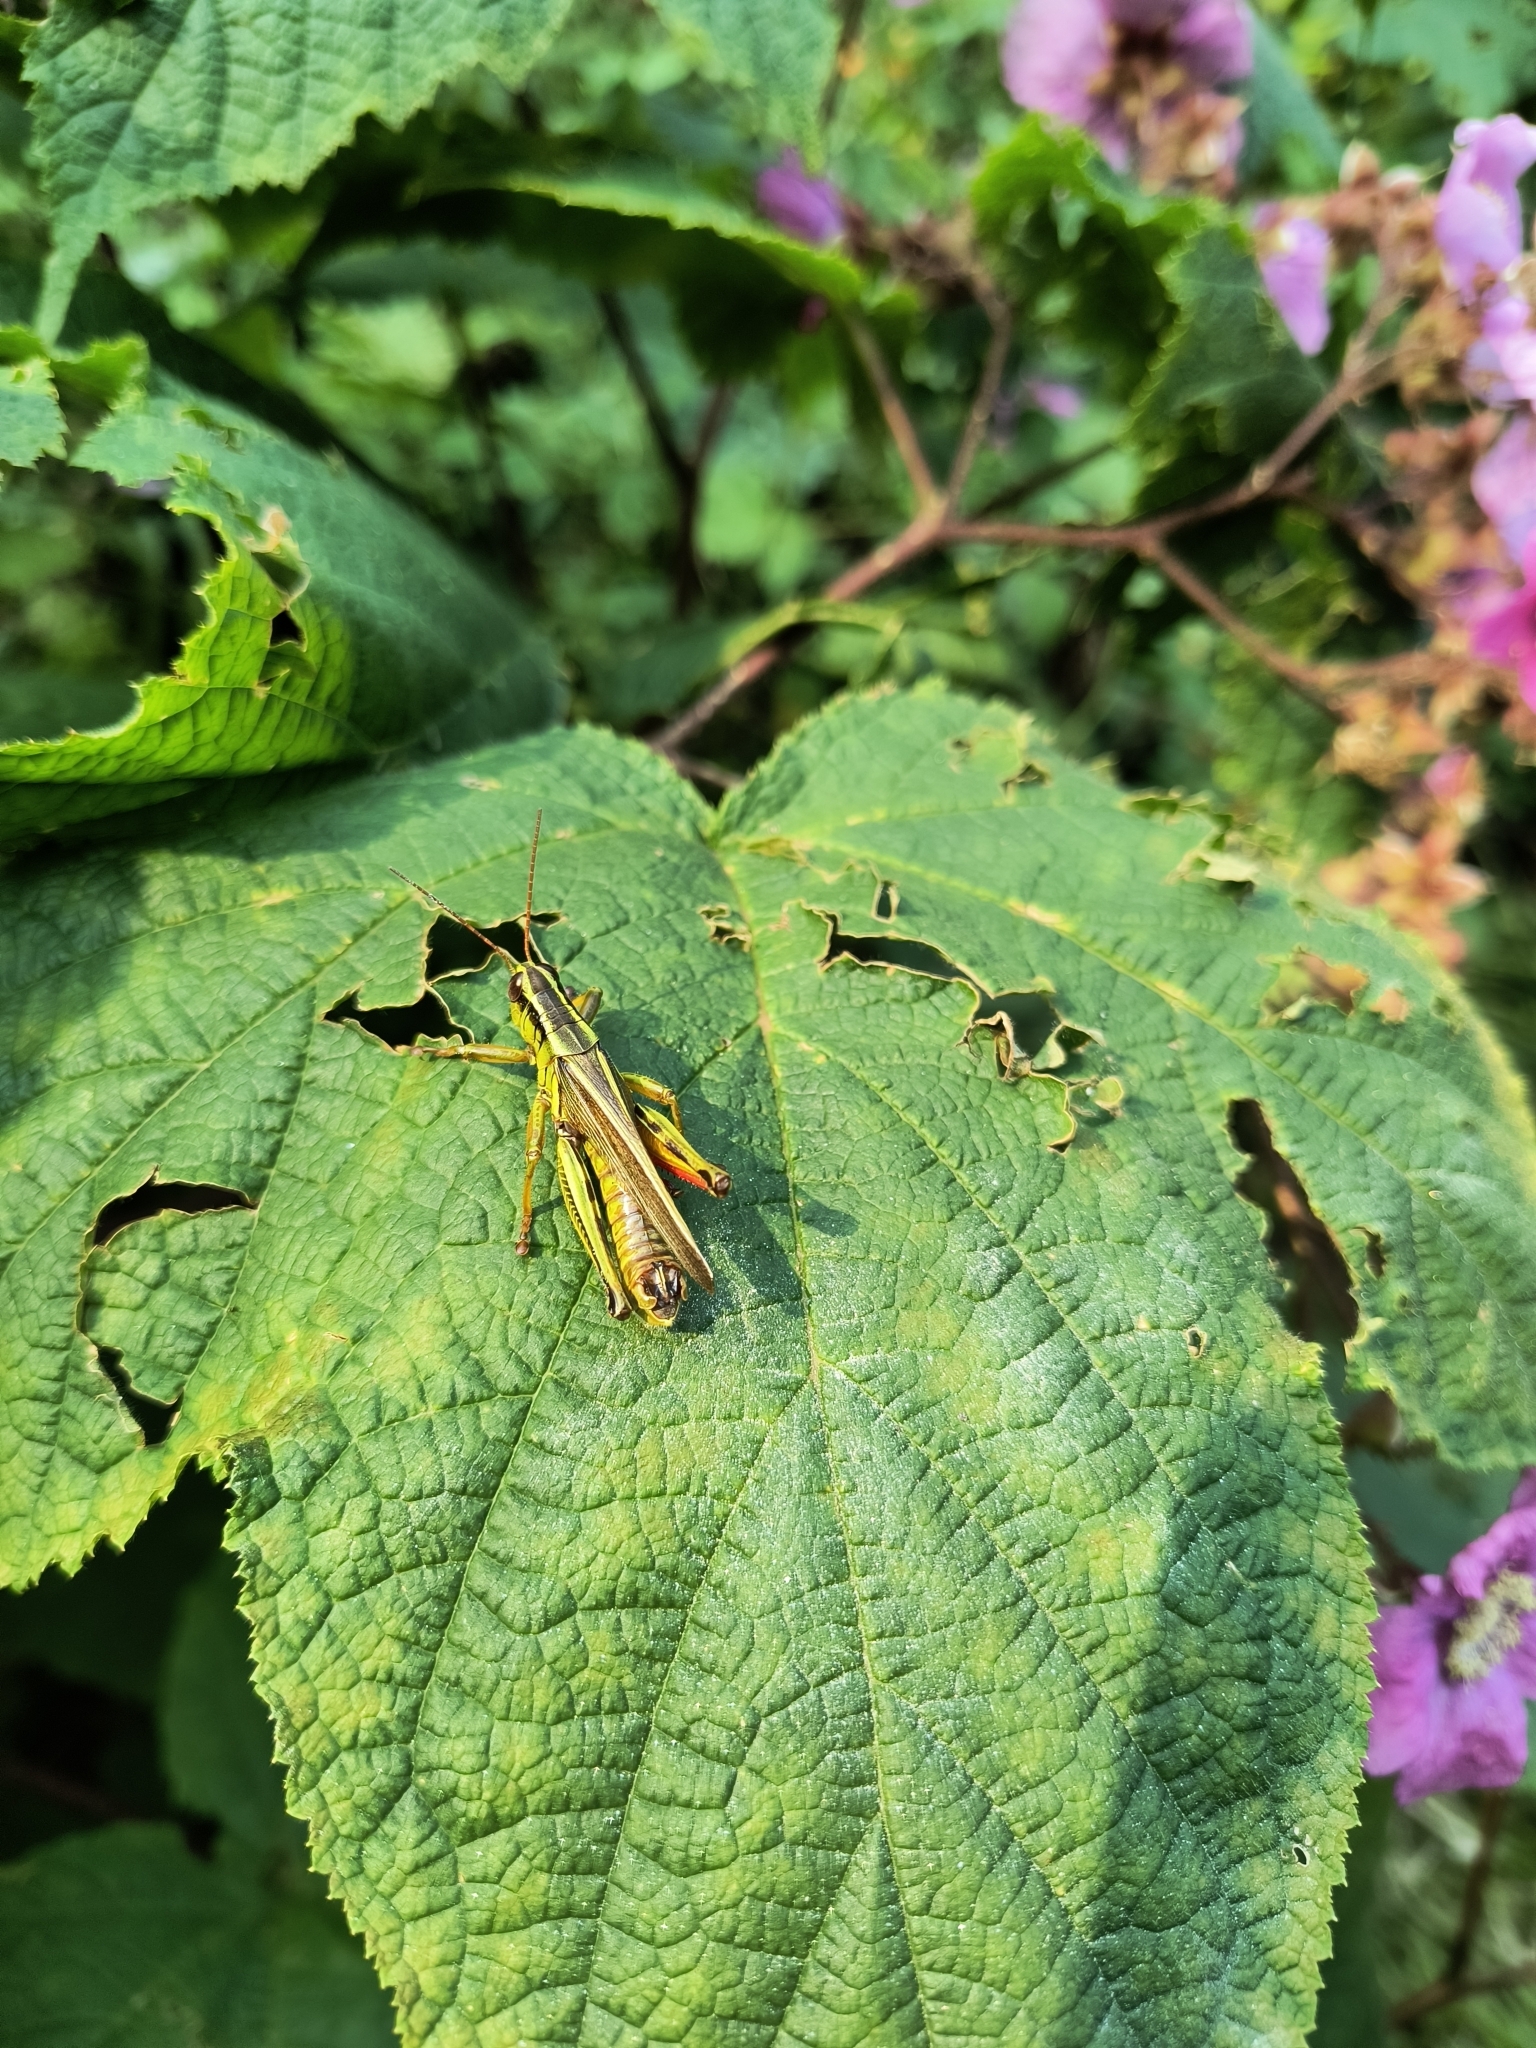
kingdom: Animalia
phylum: Arthropoda
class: Insecta
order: Orthoptera
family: Acrididae
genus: Melanoplus
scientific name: Melanoplus bivittatus
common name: Two-striped grasshopper
